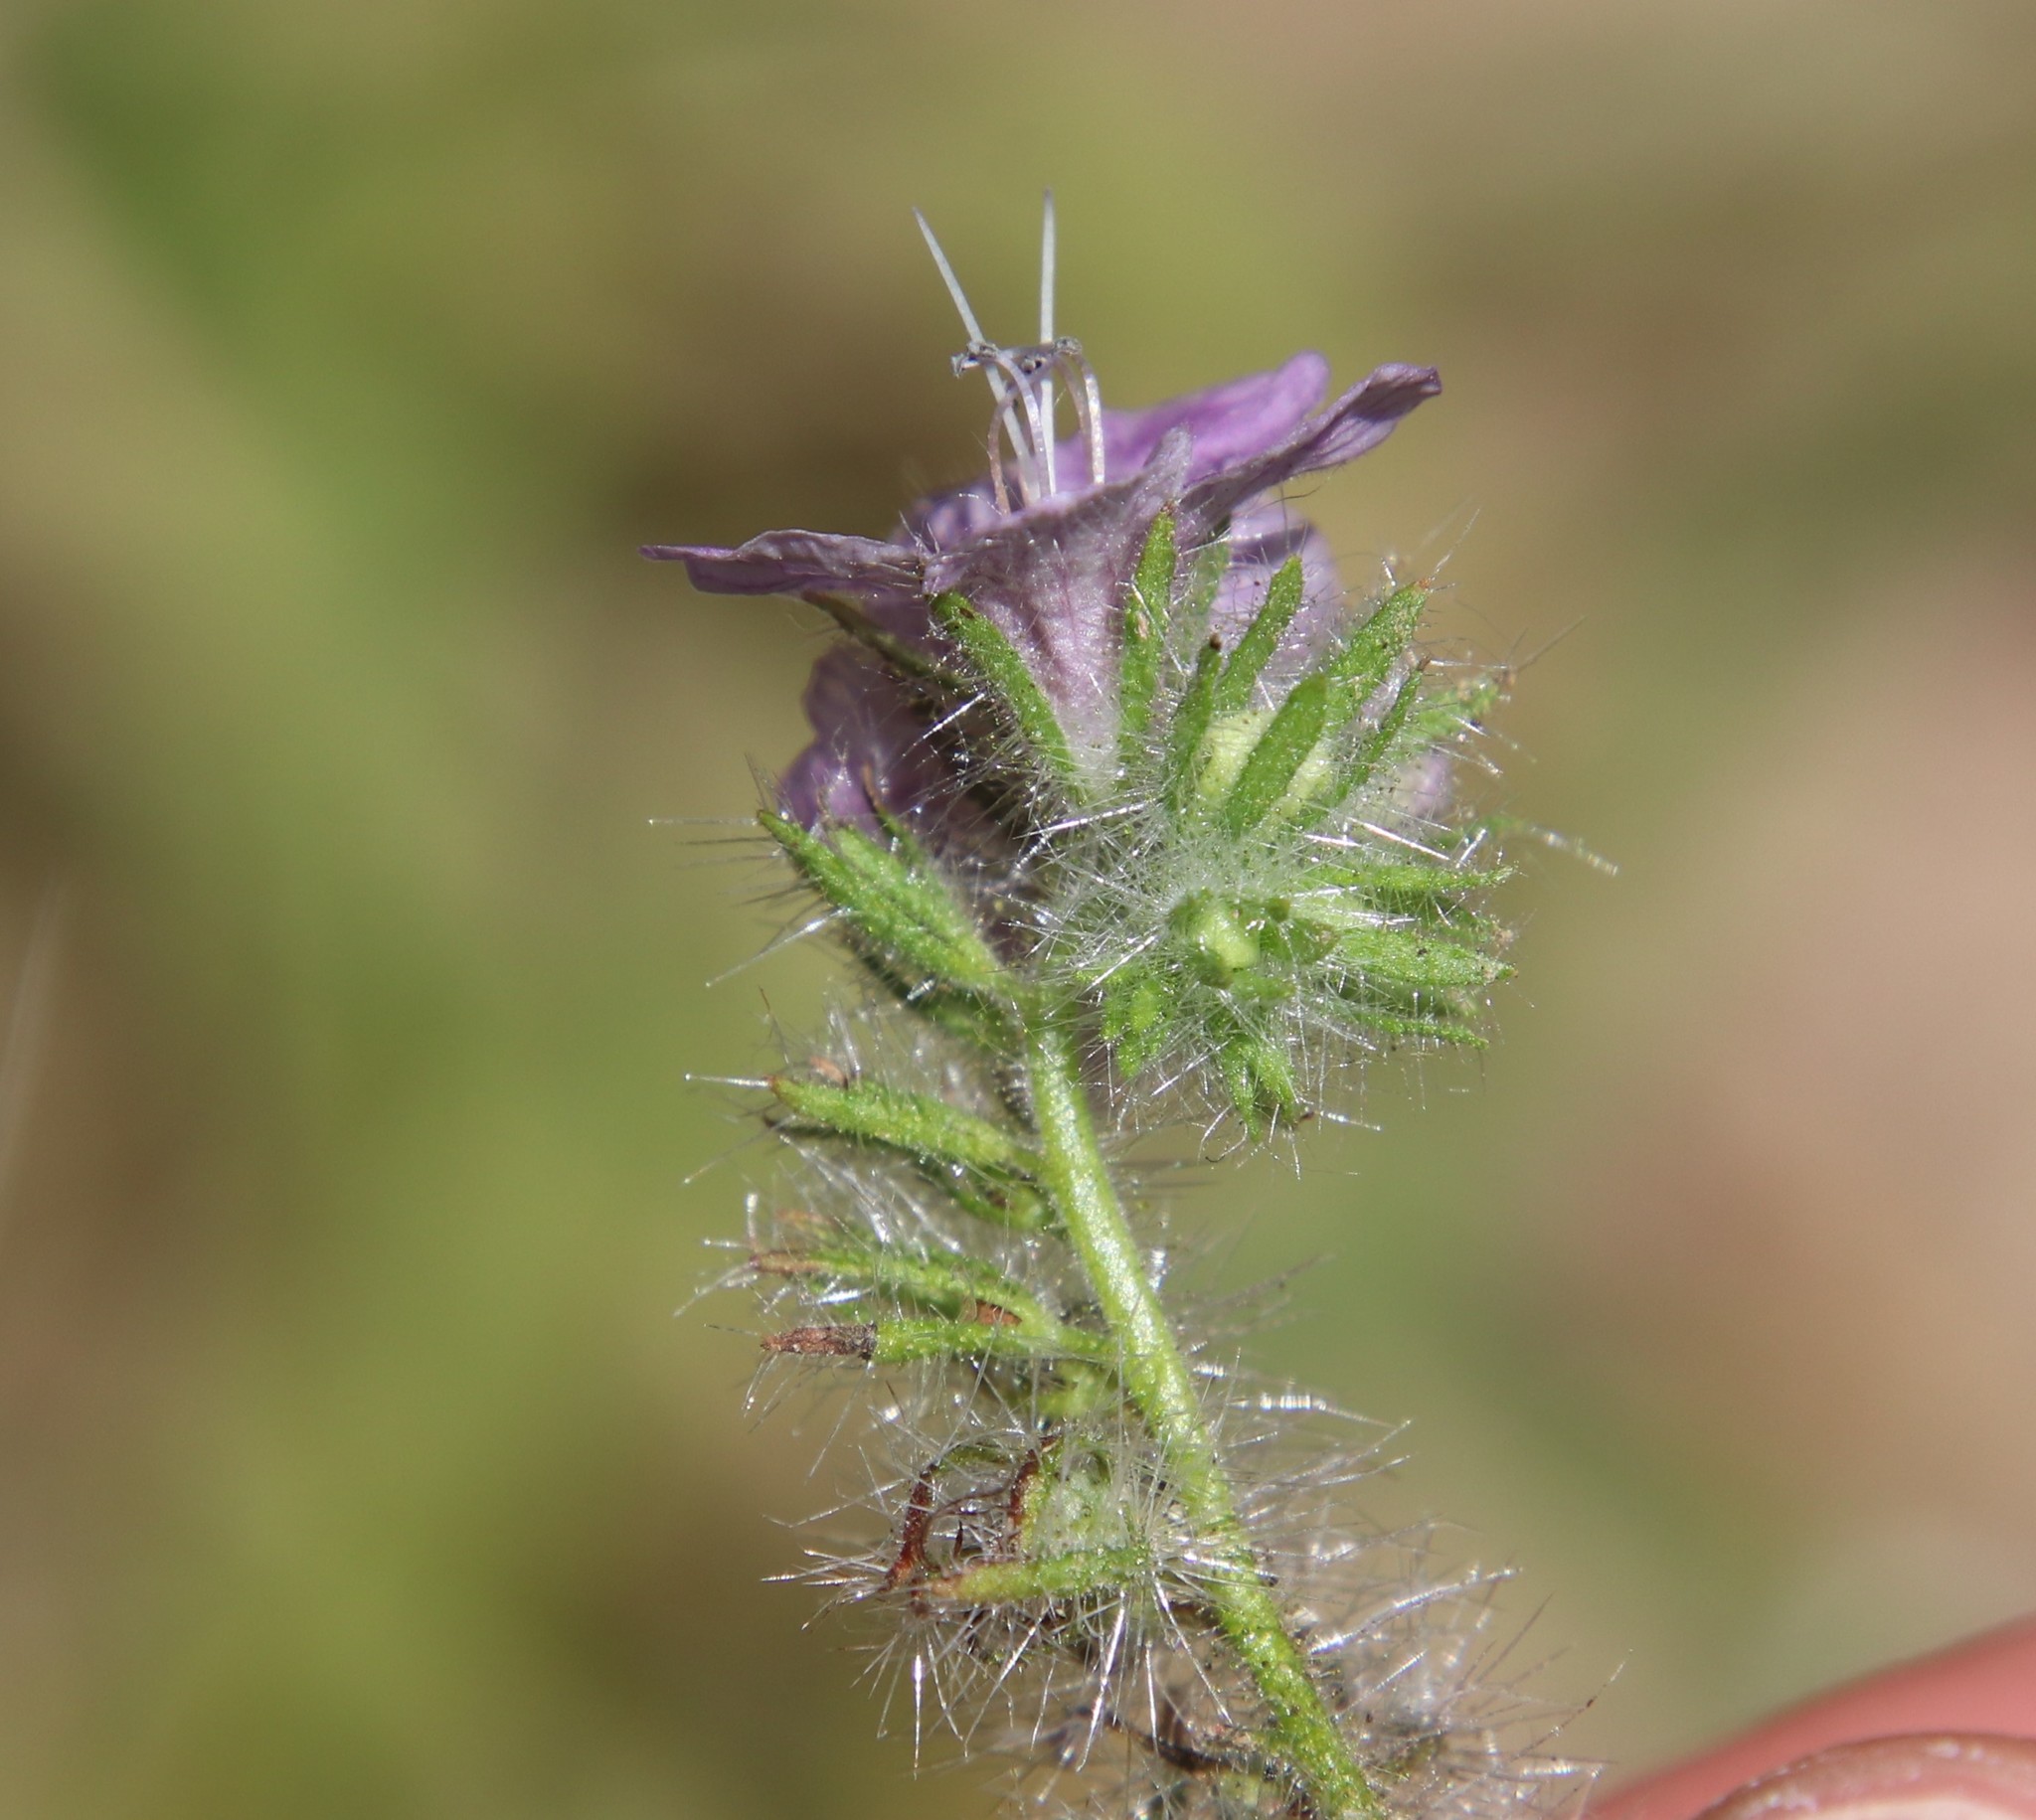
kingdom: Plantae
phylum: Tracheophyta
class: Magnoliopsida
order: Boraginales
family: Hydrophyllaceae
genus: Phacelia
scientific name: Phacelia cicutaria
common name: Caterpillar phacelia
